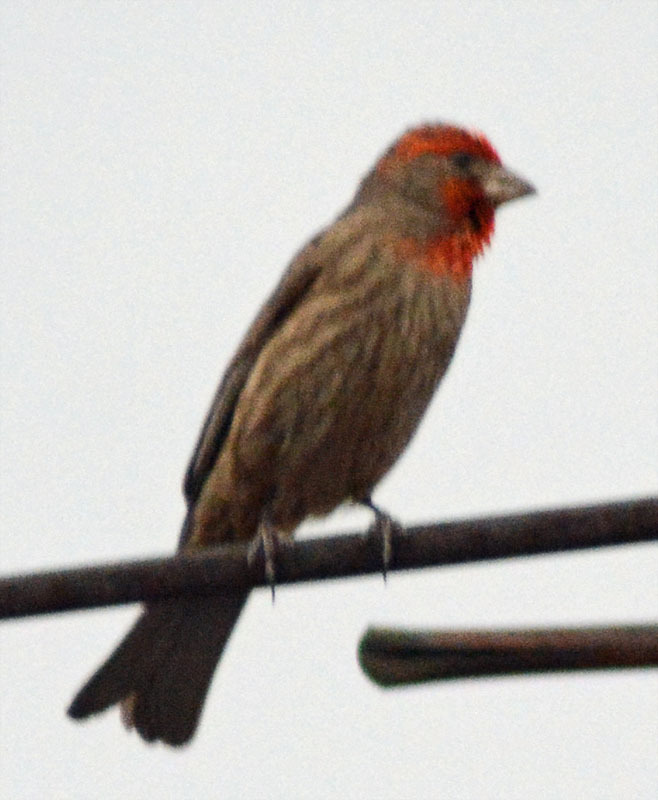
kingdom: Animalia
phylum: Chordata
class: Aves
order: Passeriformes
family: Fringillidae
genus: Haemorhous
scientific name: Haemorhous mexicanus
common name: House finch
